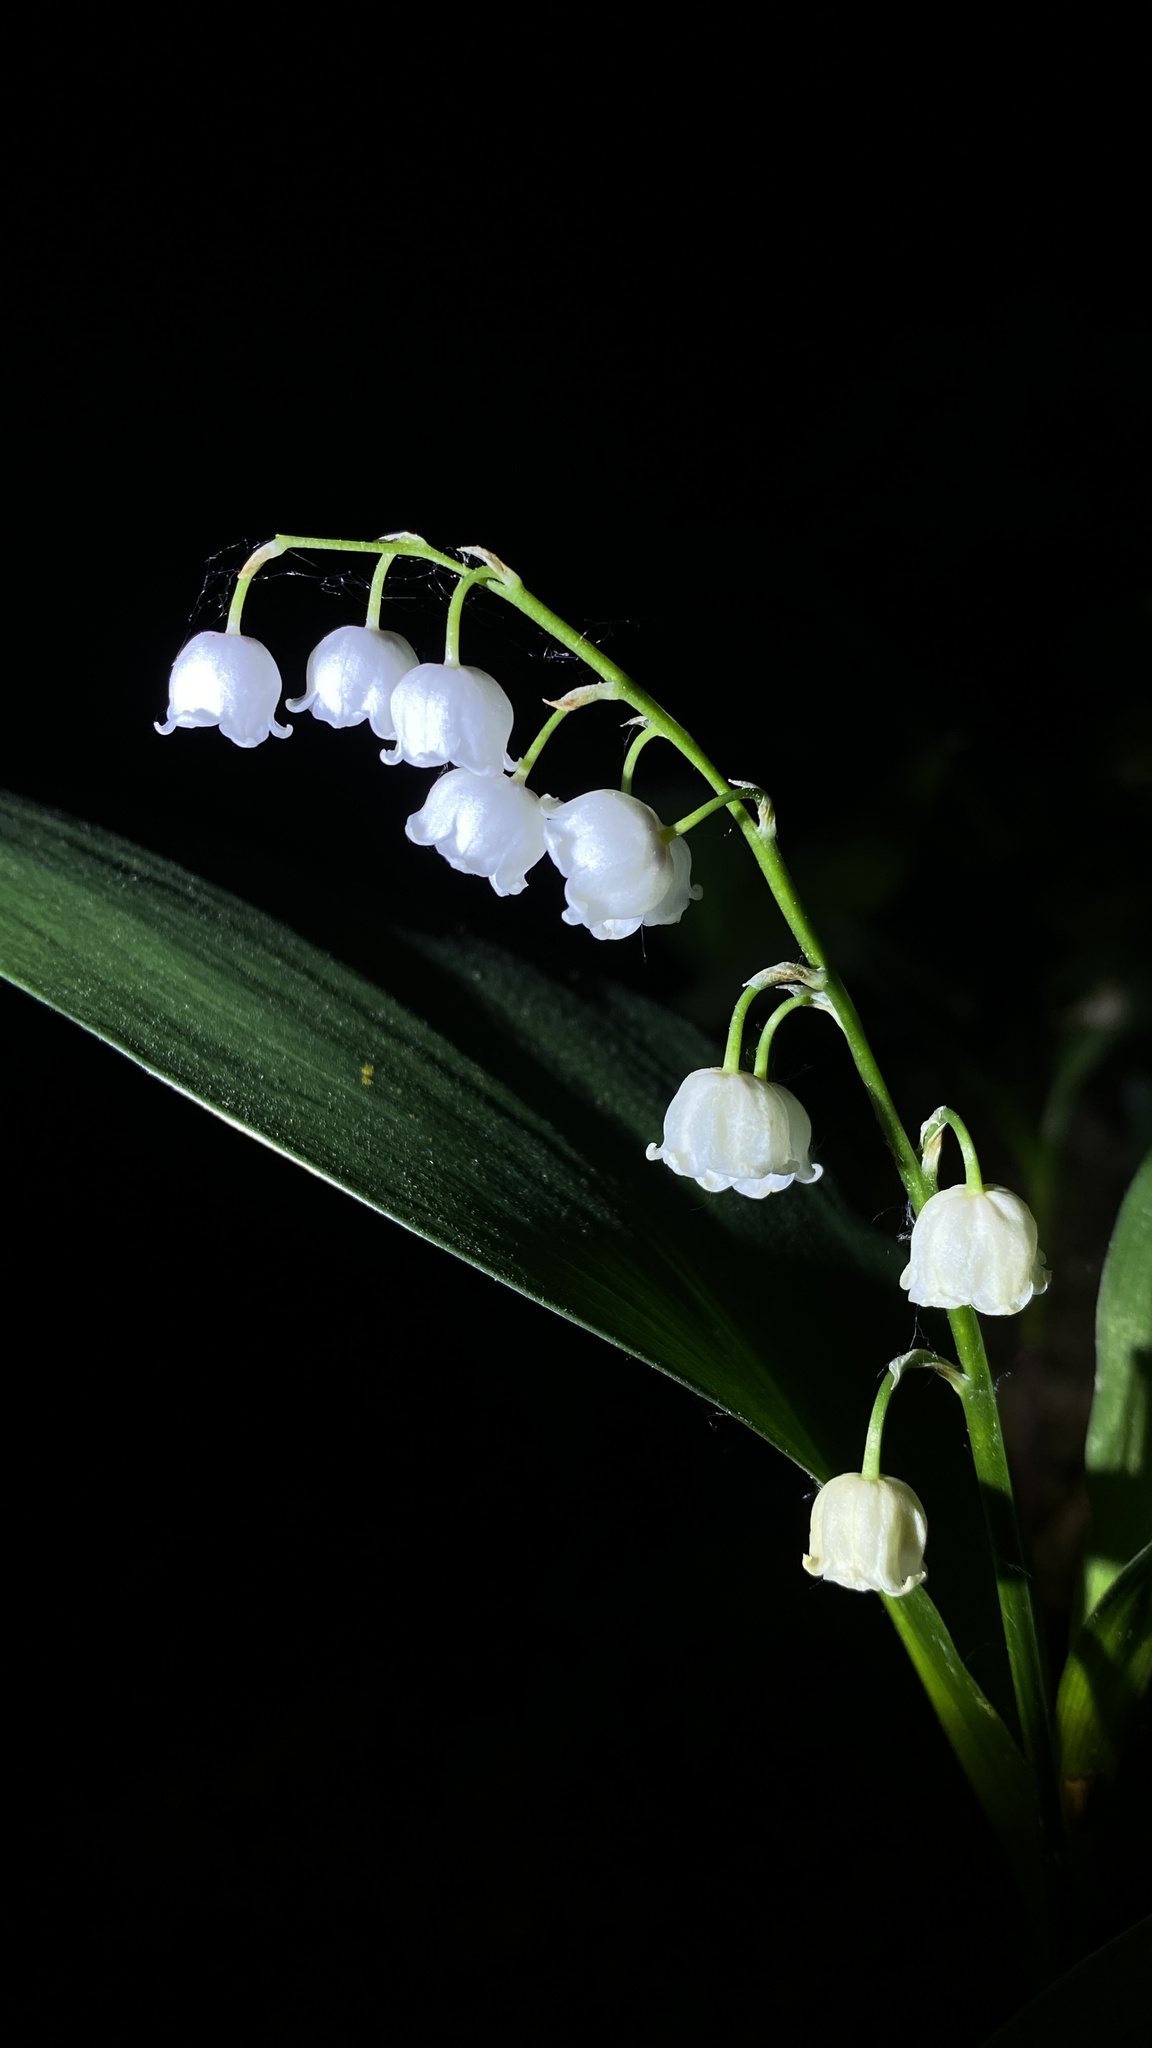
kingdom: Plantae
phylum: Tracheophyta
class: Liliopsida
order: Asparagales
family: Asparagaceae
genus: Convallaria
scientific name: Convallaria majalis
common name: Lily-of-the-valley
